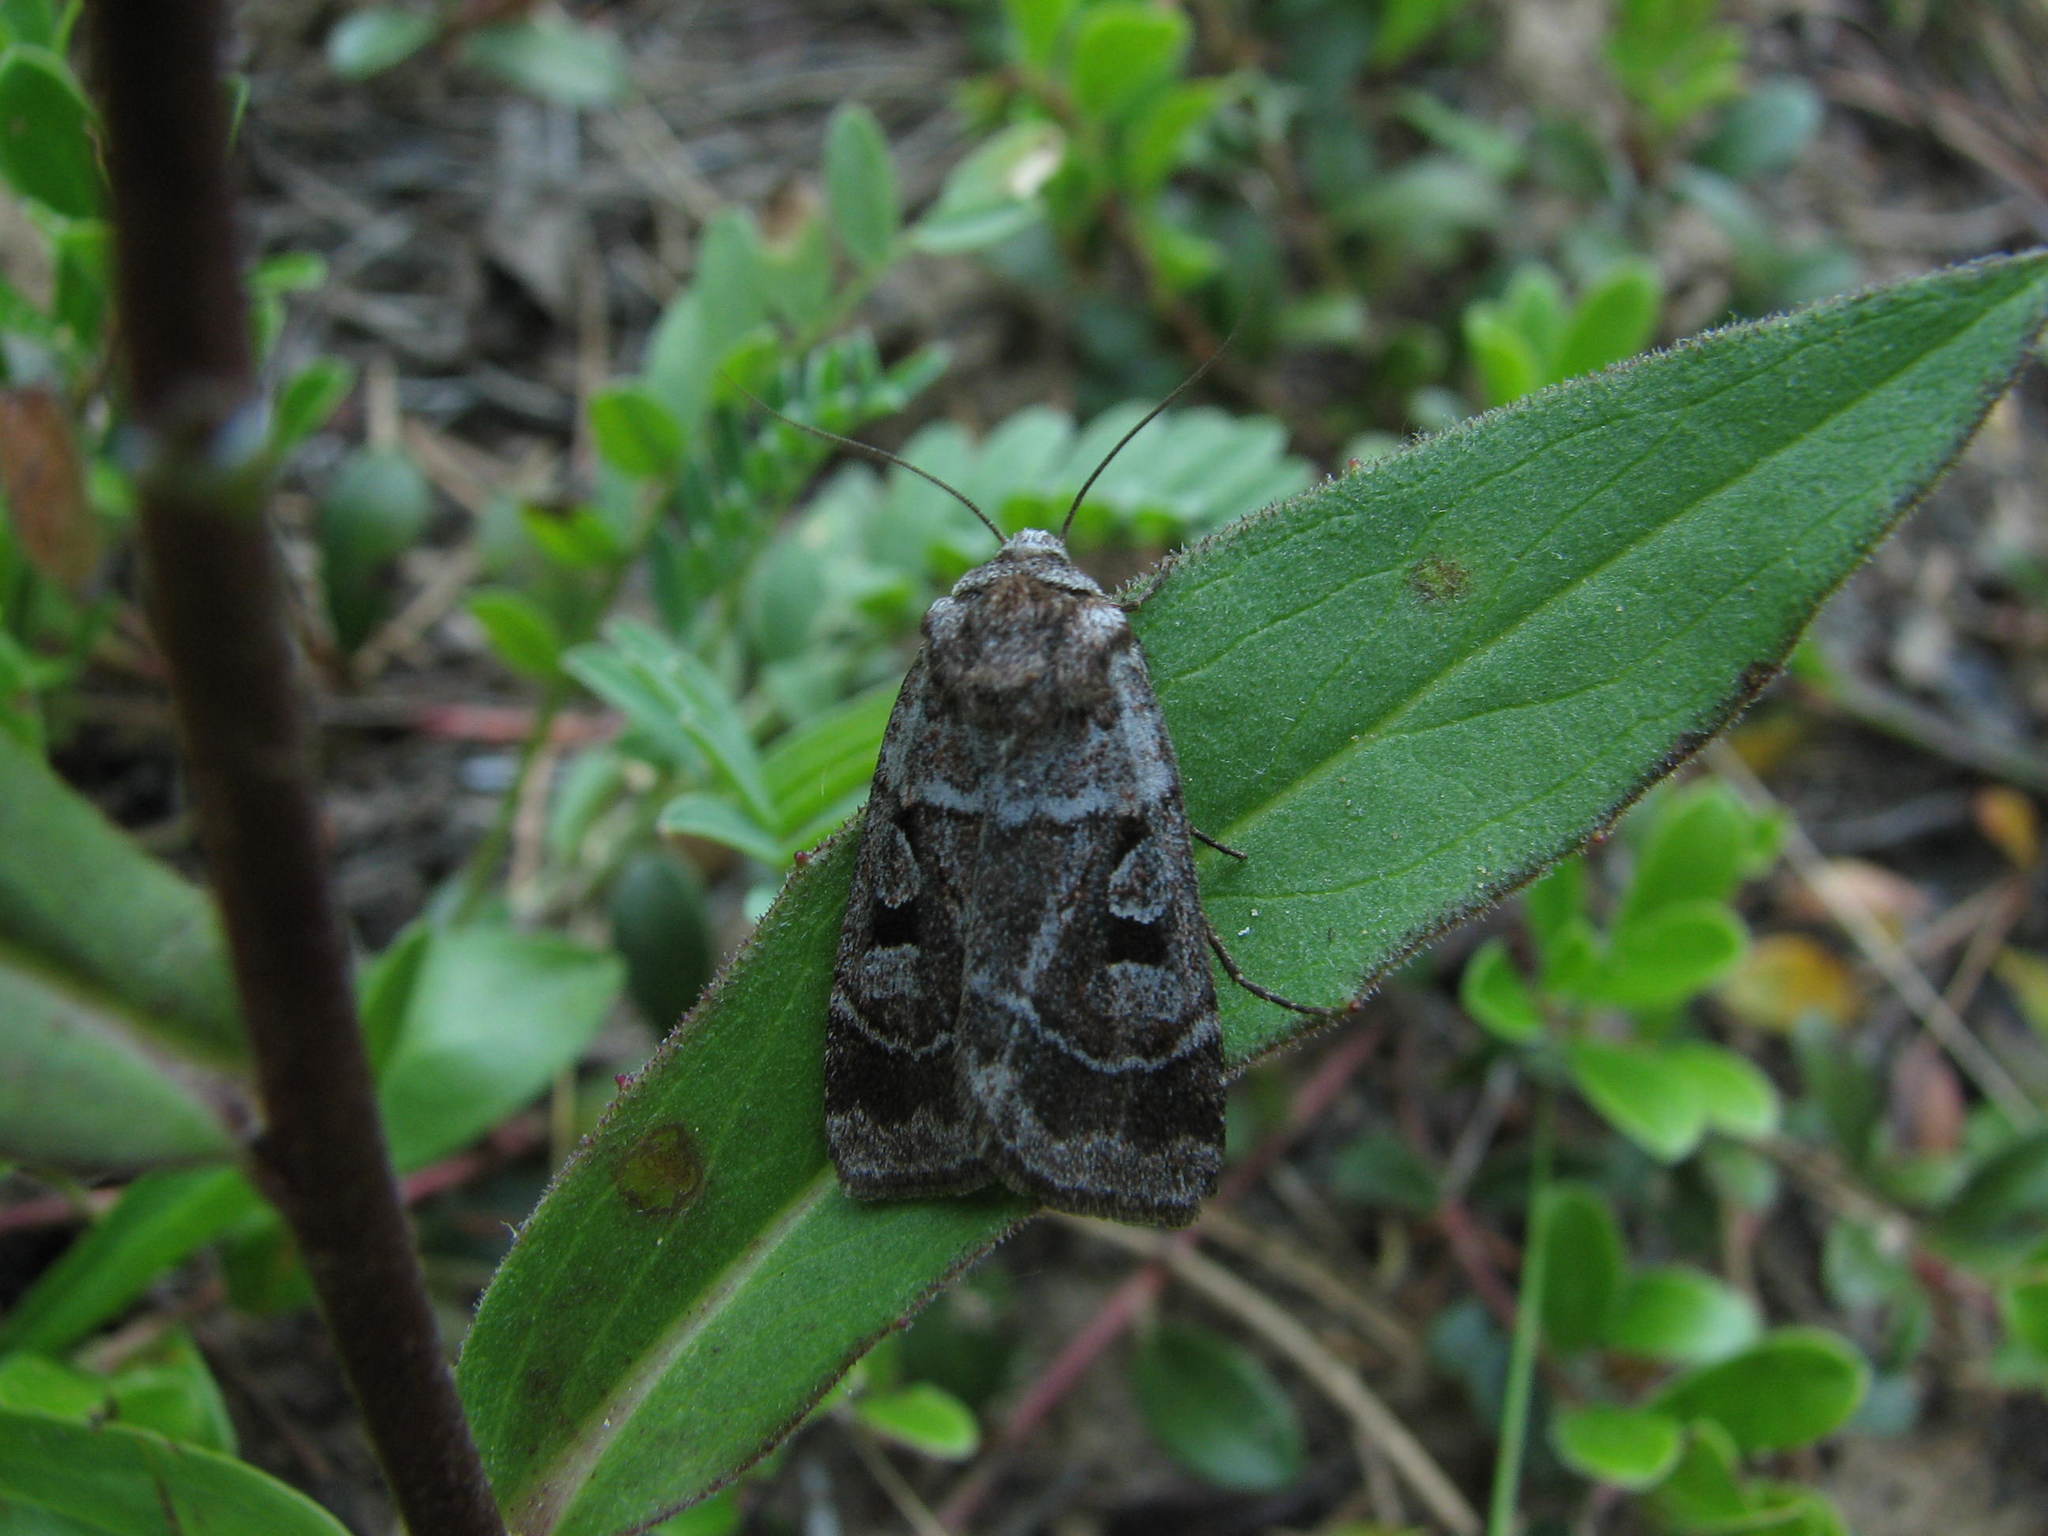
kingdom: Animalia
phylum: Arthropoda
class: Insecta
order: Lepidoptera
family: Noctuidae
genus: Feltia
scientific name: Feltia mollis
